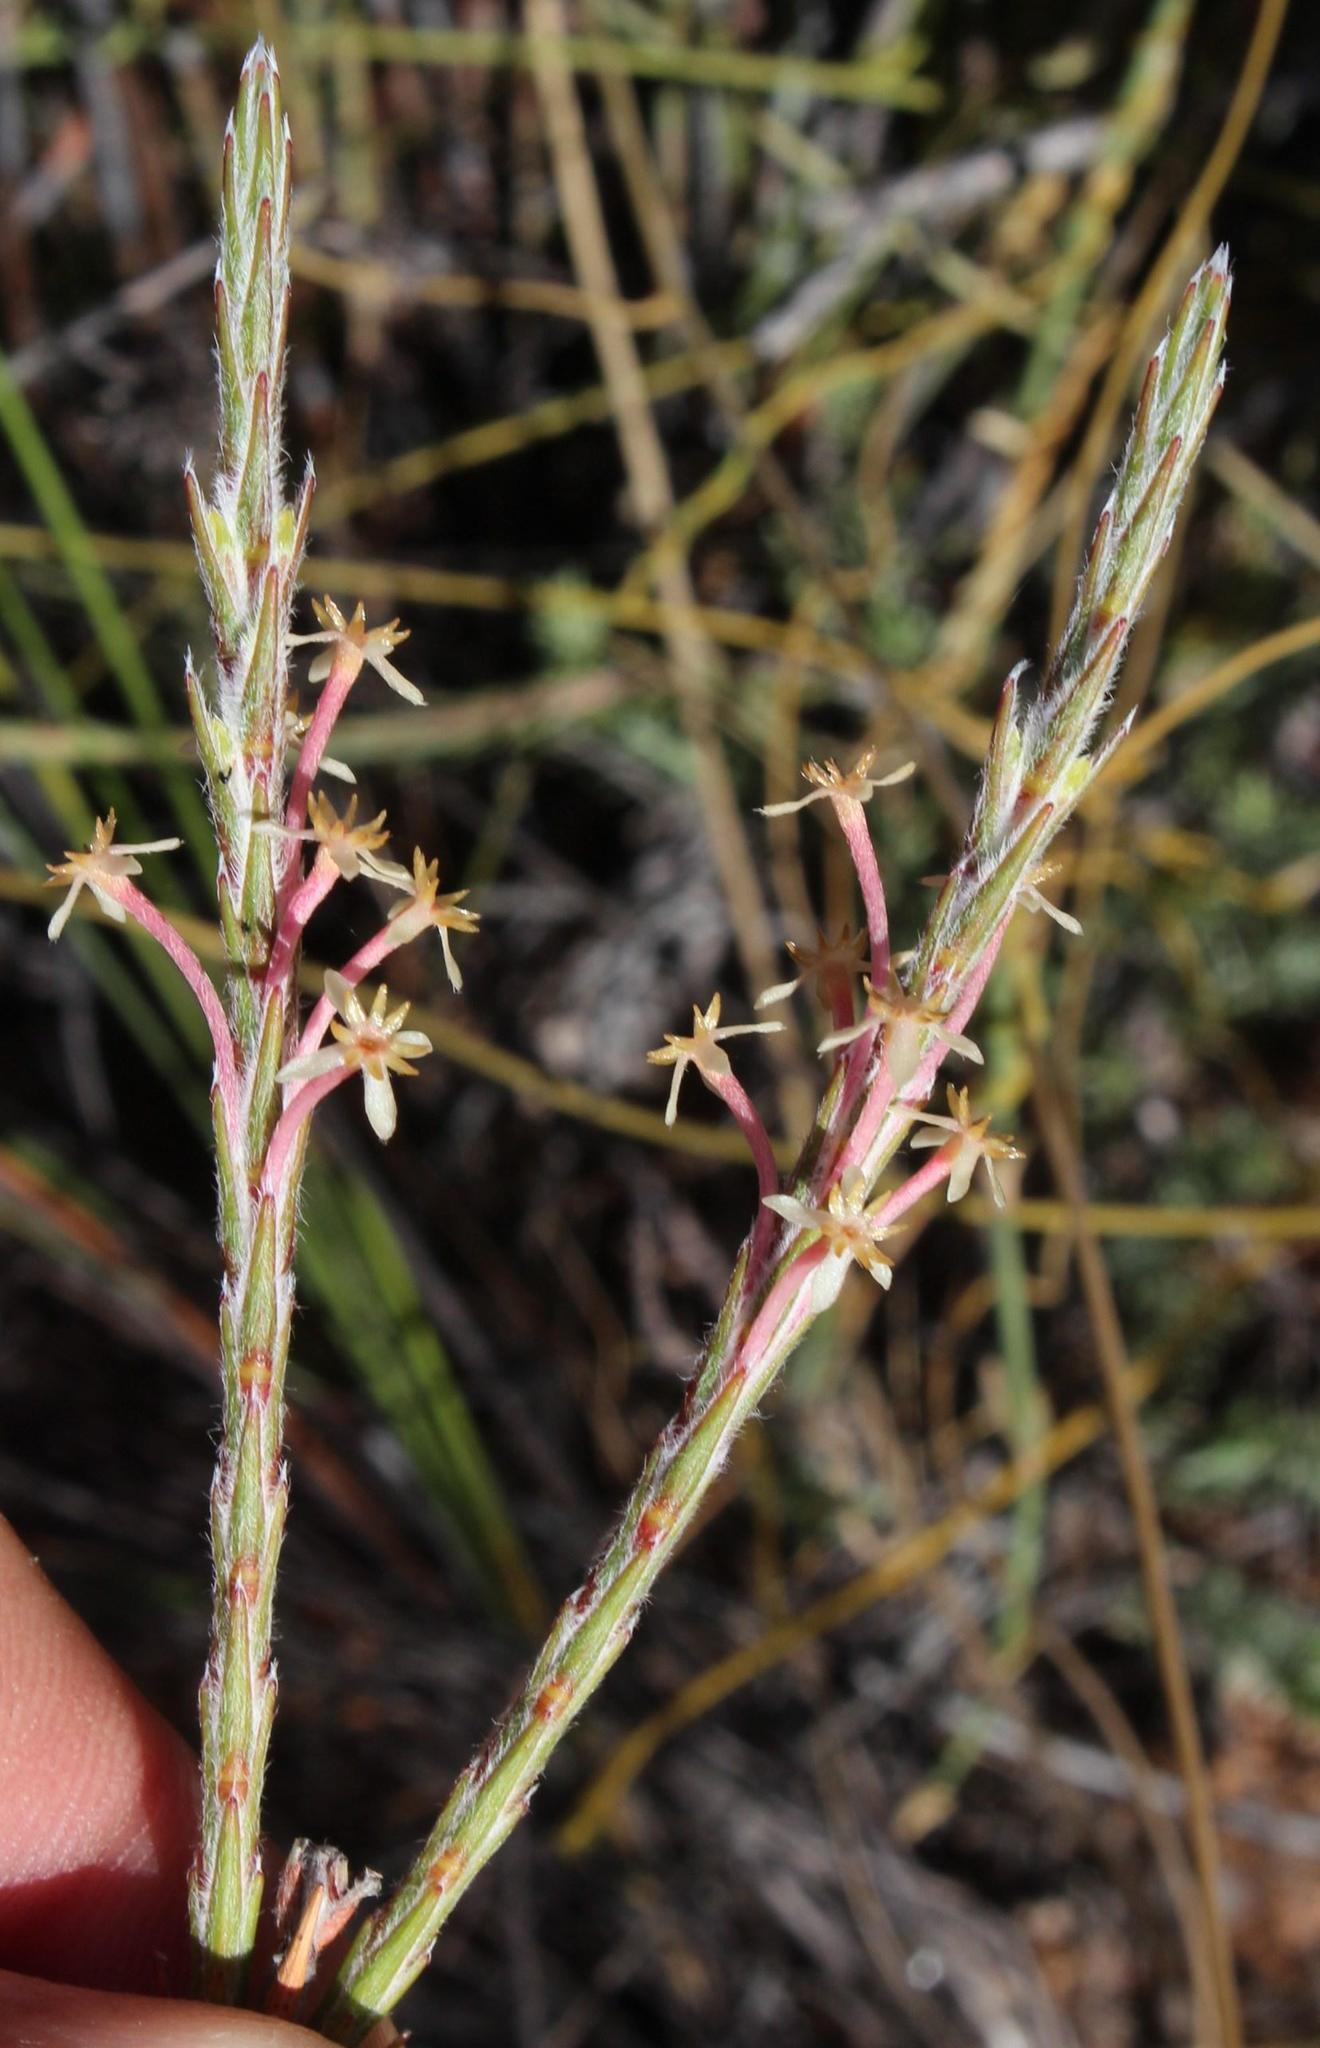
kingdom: Plantae
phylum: Tracheophyta
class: Magnoliopsida
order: Malvales
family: Thymelaeaceae
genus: Struthiola
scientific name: Struthiola ciliata
